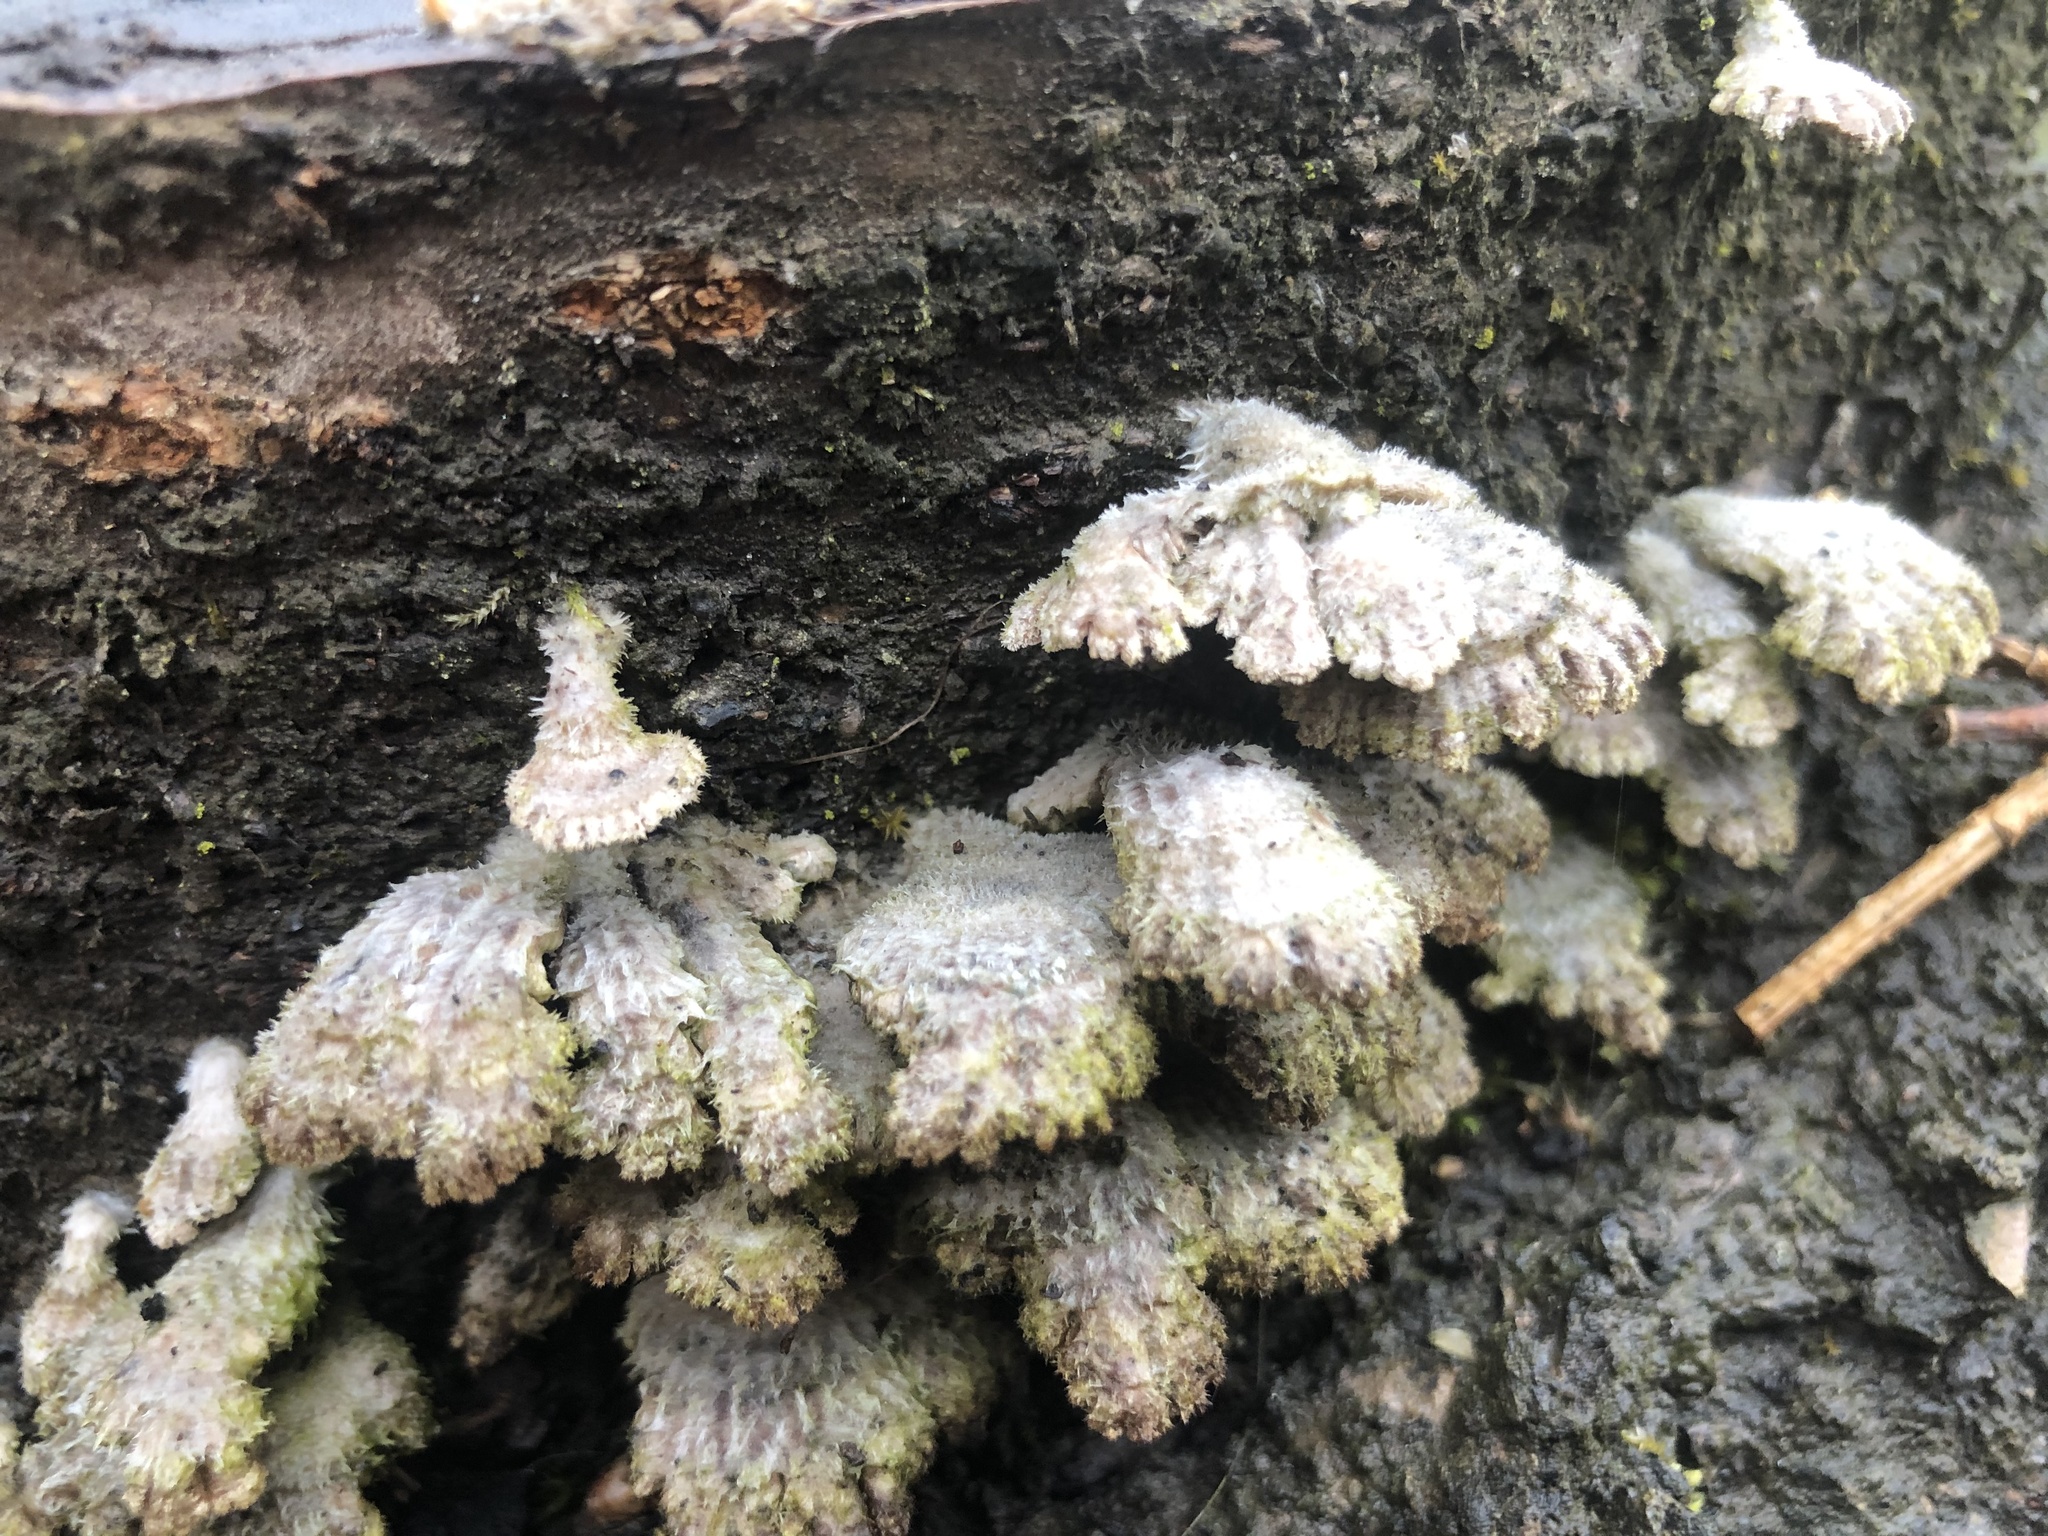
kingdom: Fungi
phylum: Basidiomycota
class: Agaricomycetes
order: Agaricales
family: Schizophyllaceae
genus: Schizophyllum
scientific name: Schizophyllum commune
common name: Common porecrust
